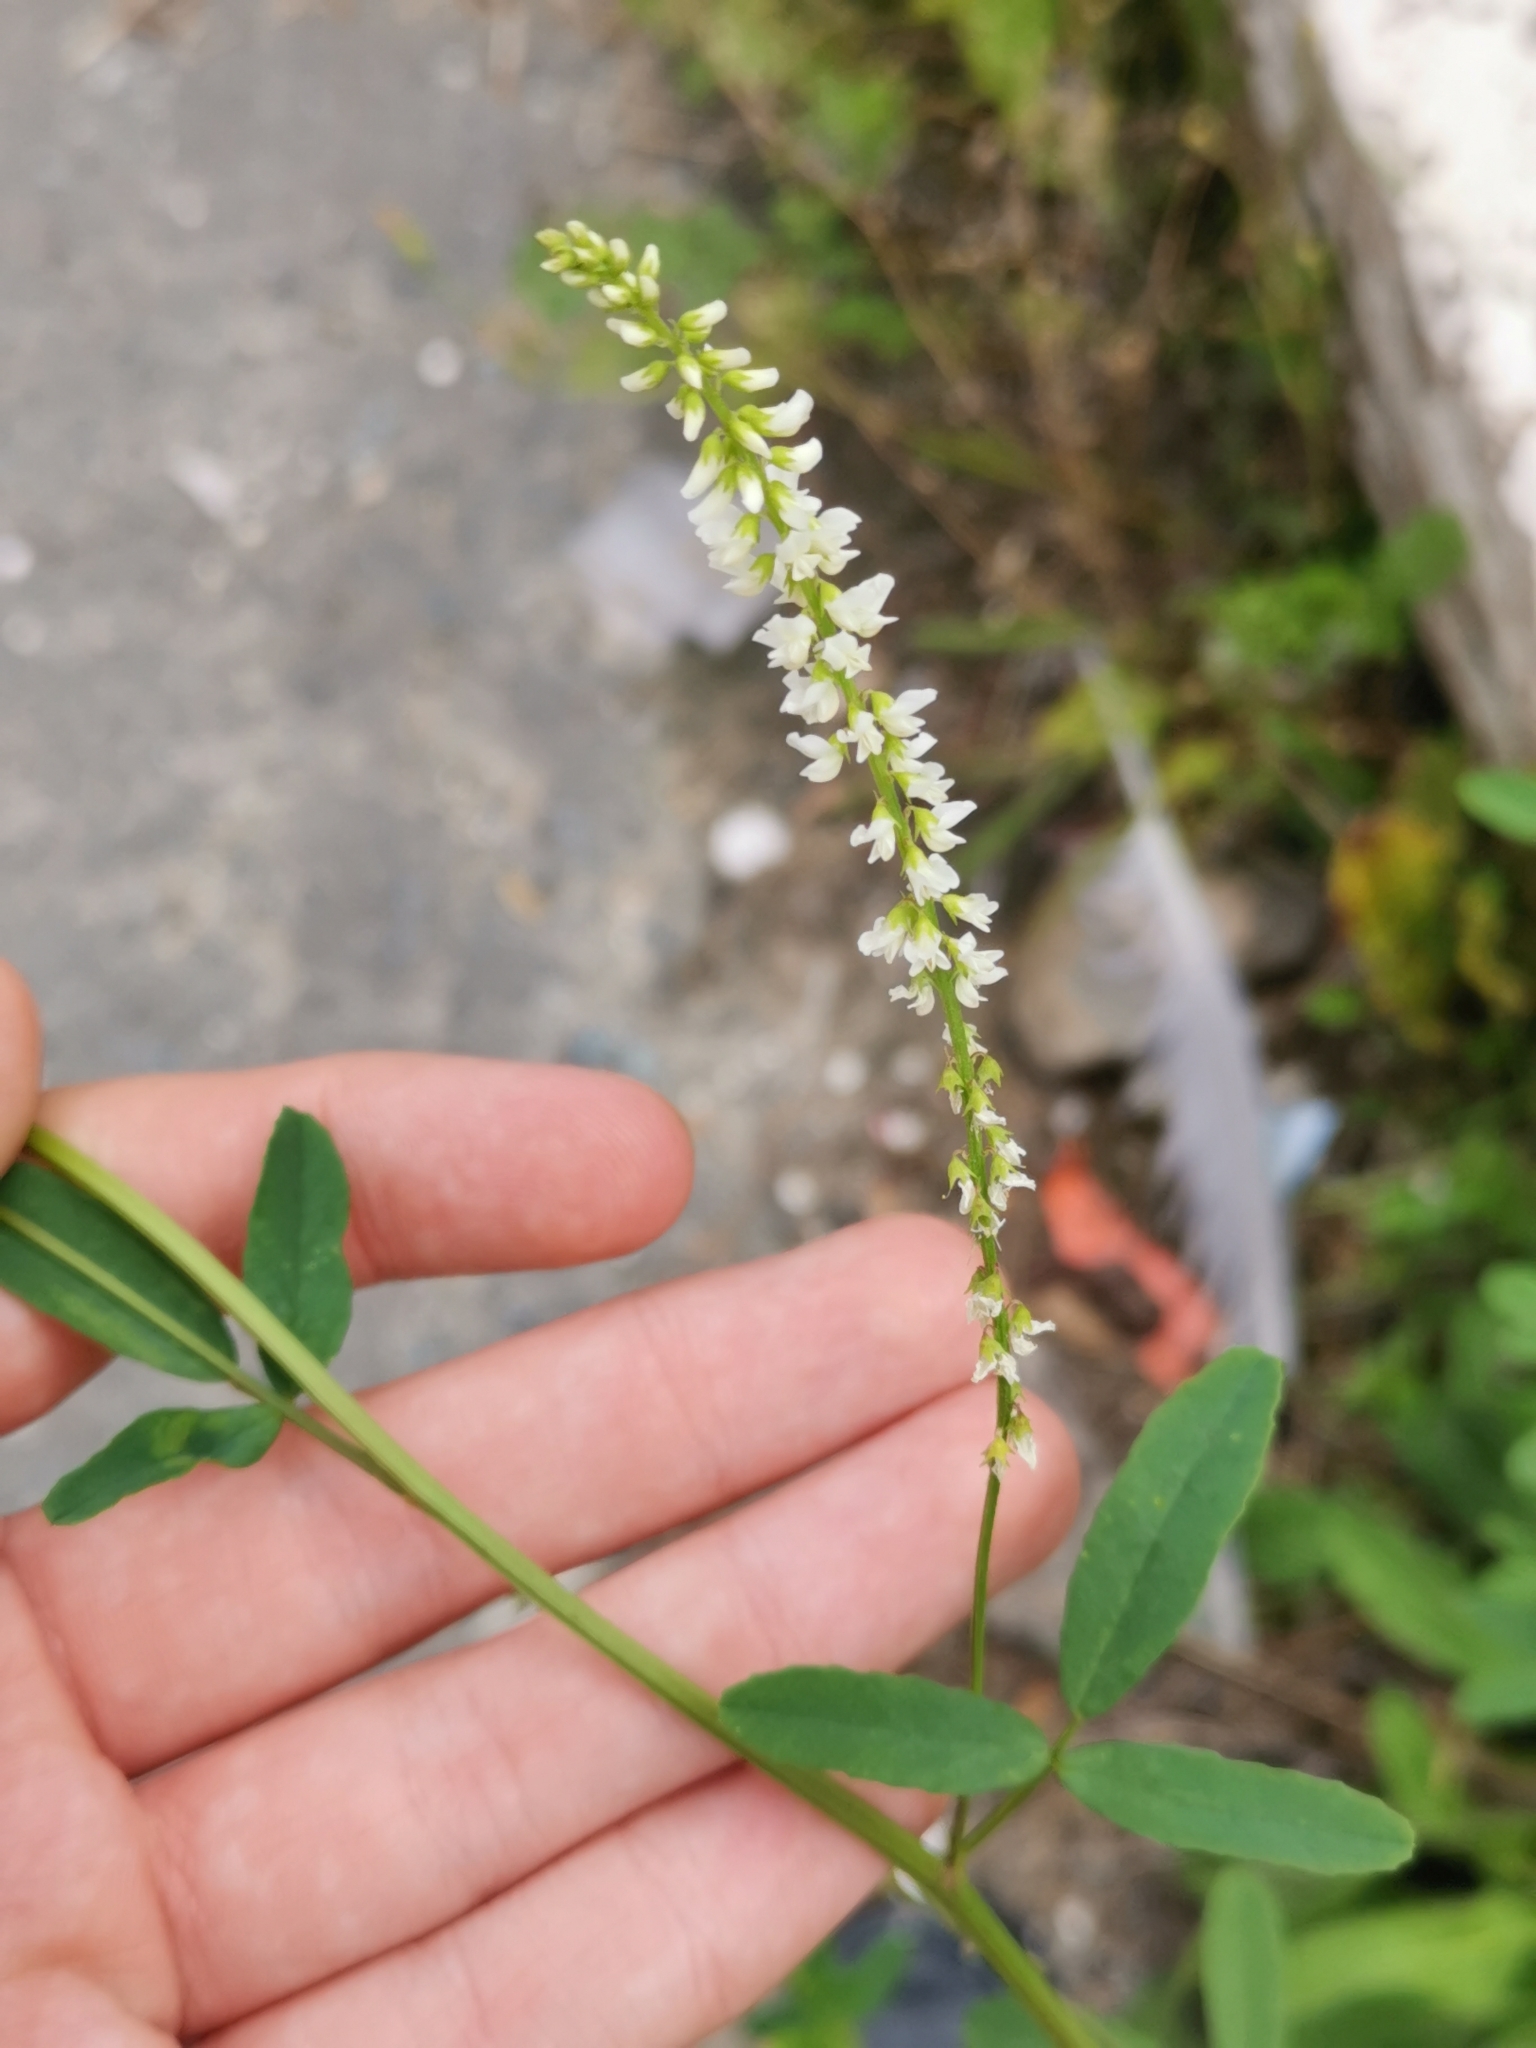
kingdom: Plantae
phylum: Tracheophyta
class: Magnoliopsida
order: Fabales
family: Fabaceae
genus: Melilotus
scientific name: Melilotus albus
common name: White melilot
